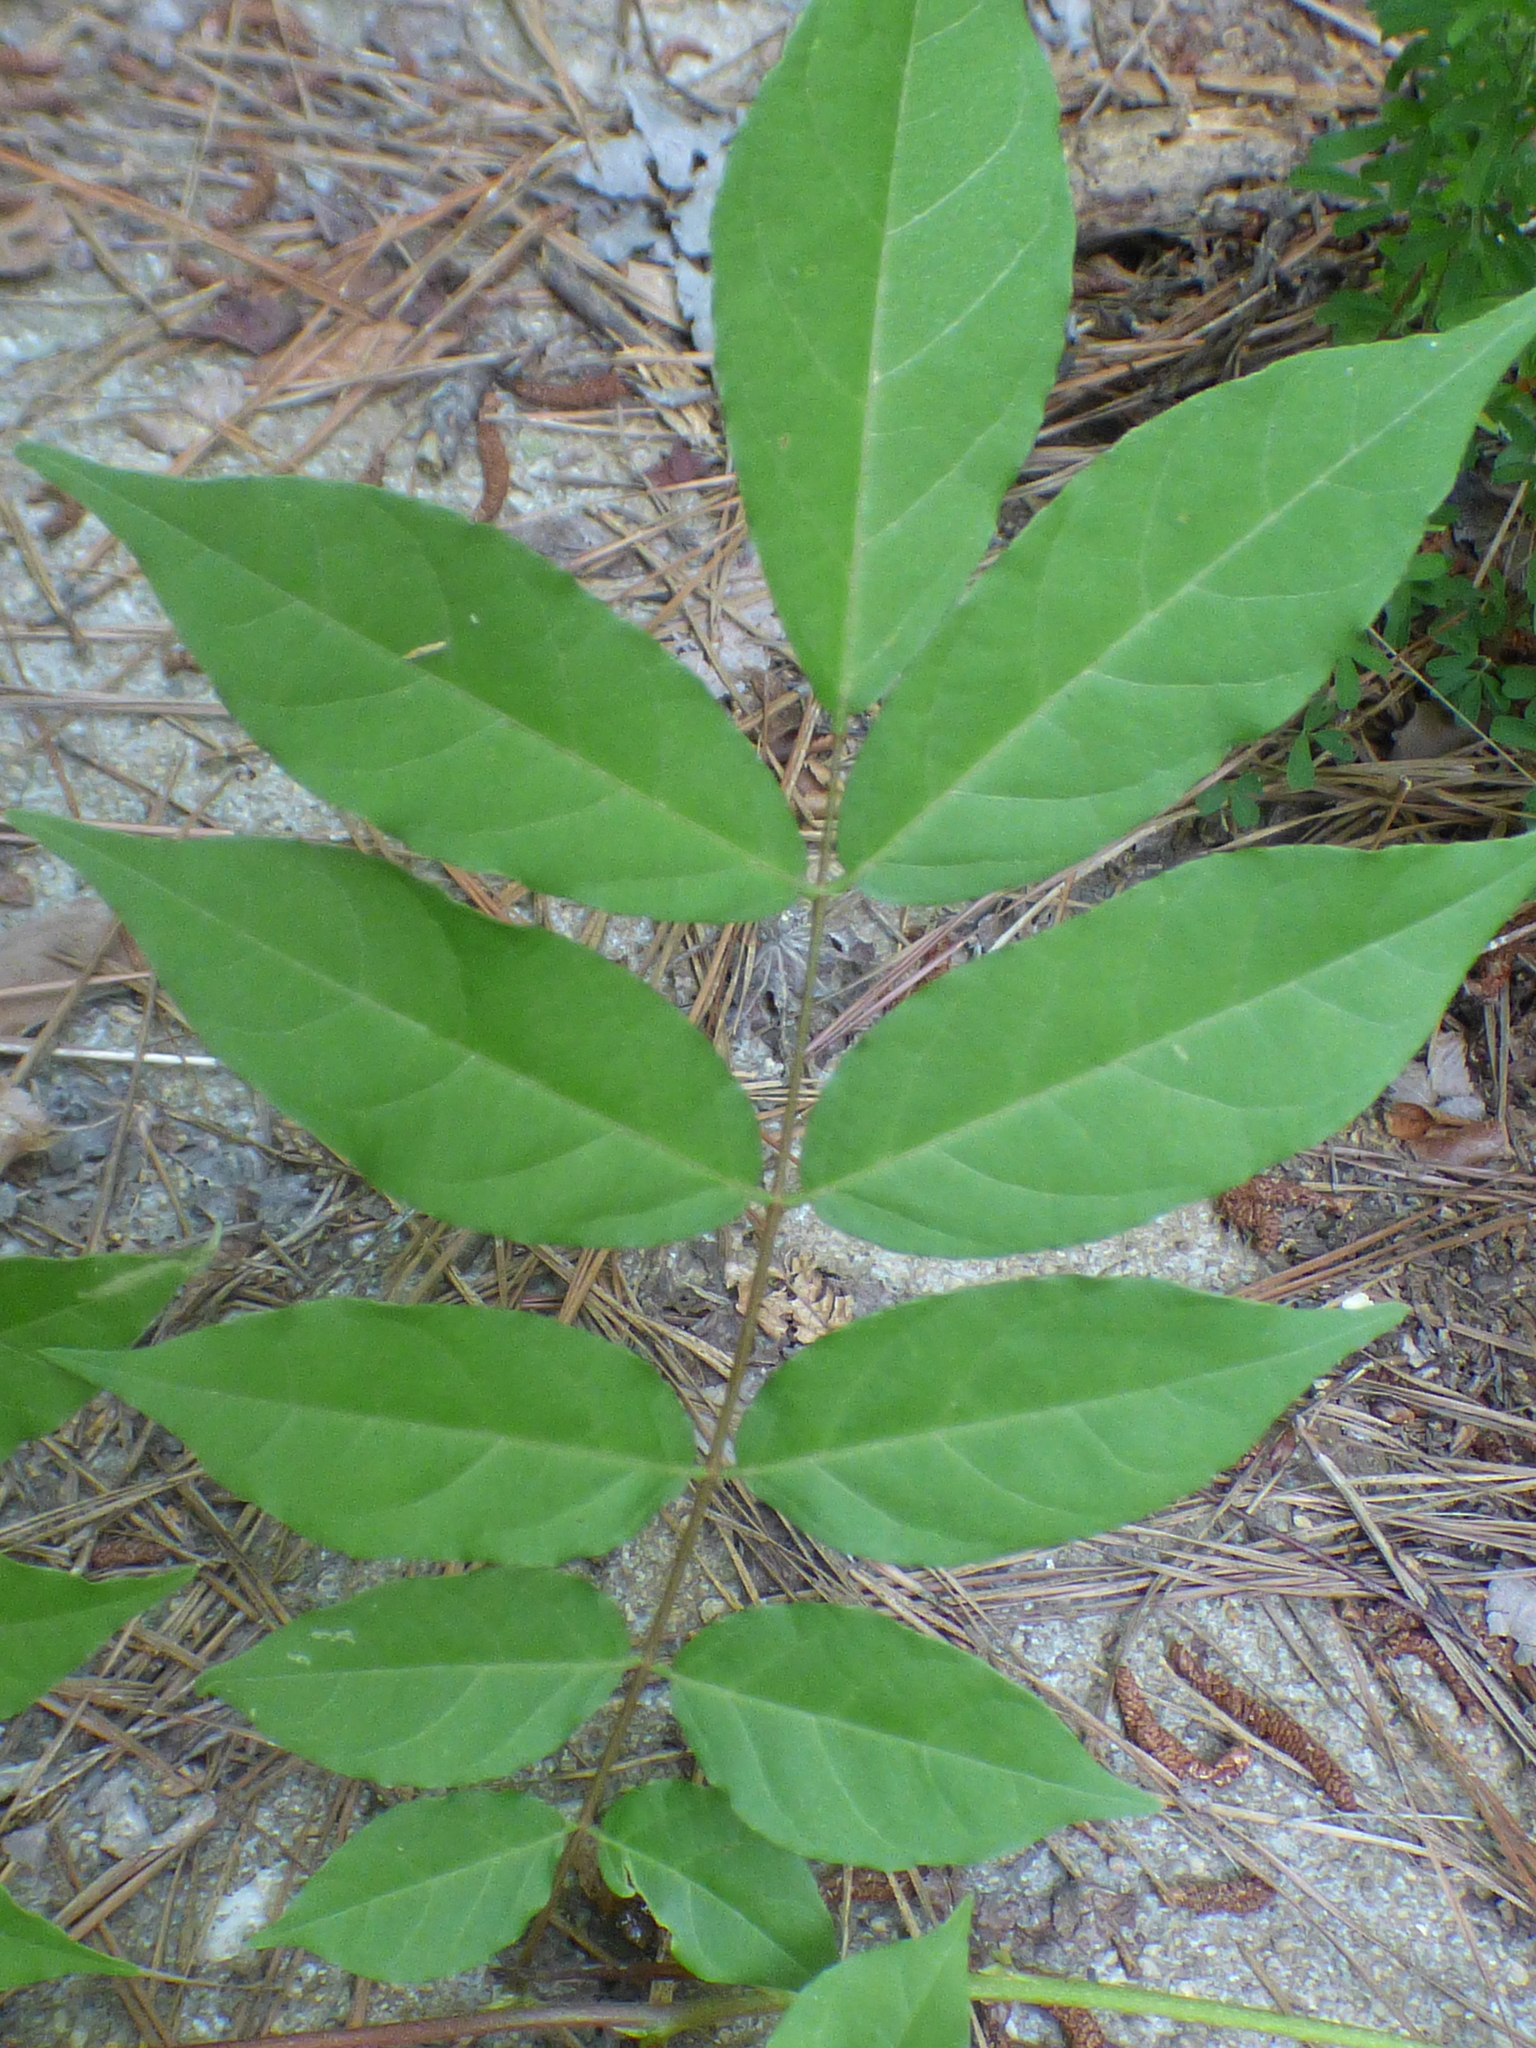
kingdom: Plantae
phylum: Tracheophyta
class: Magnoliopsida
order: Fabales
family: Fabaceae
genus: Wisteria
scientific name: Wisteria sinensis
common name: Chinese wisteria
